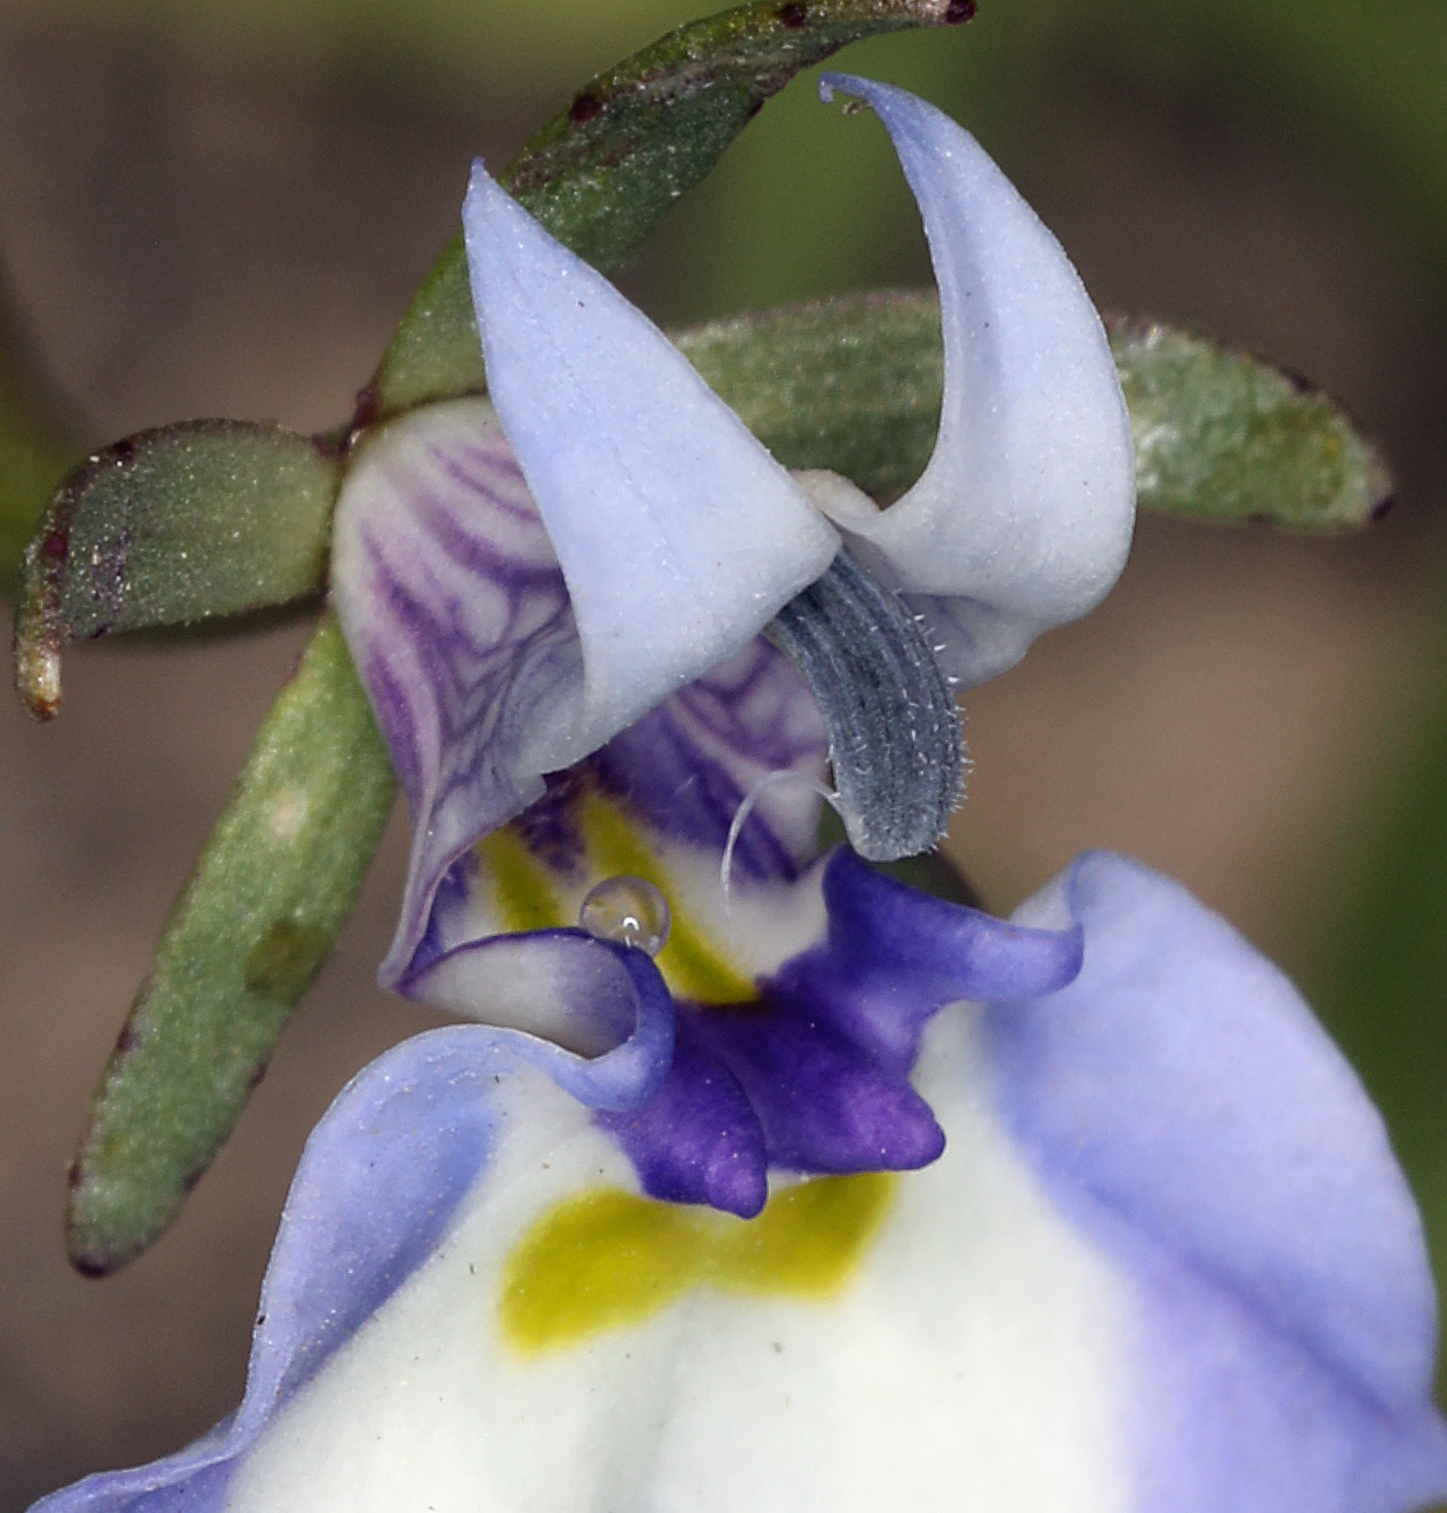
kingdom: Plantae
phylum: Tracheophyta
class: Magnoliopsida
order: Asterales
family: Campanulaceae
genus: Downingia
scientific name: Downingia bicornuta
